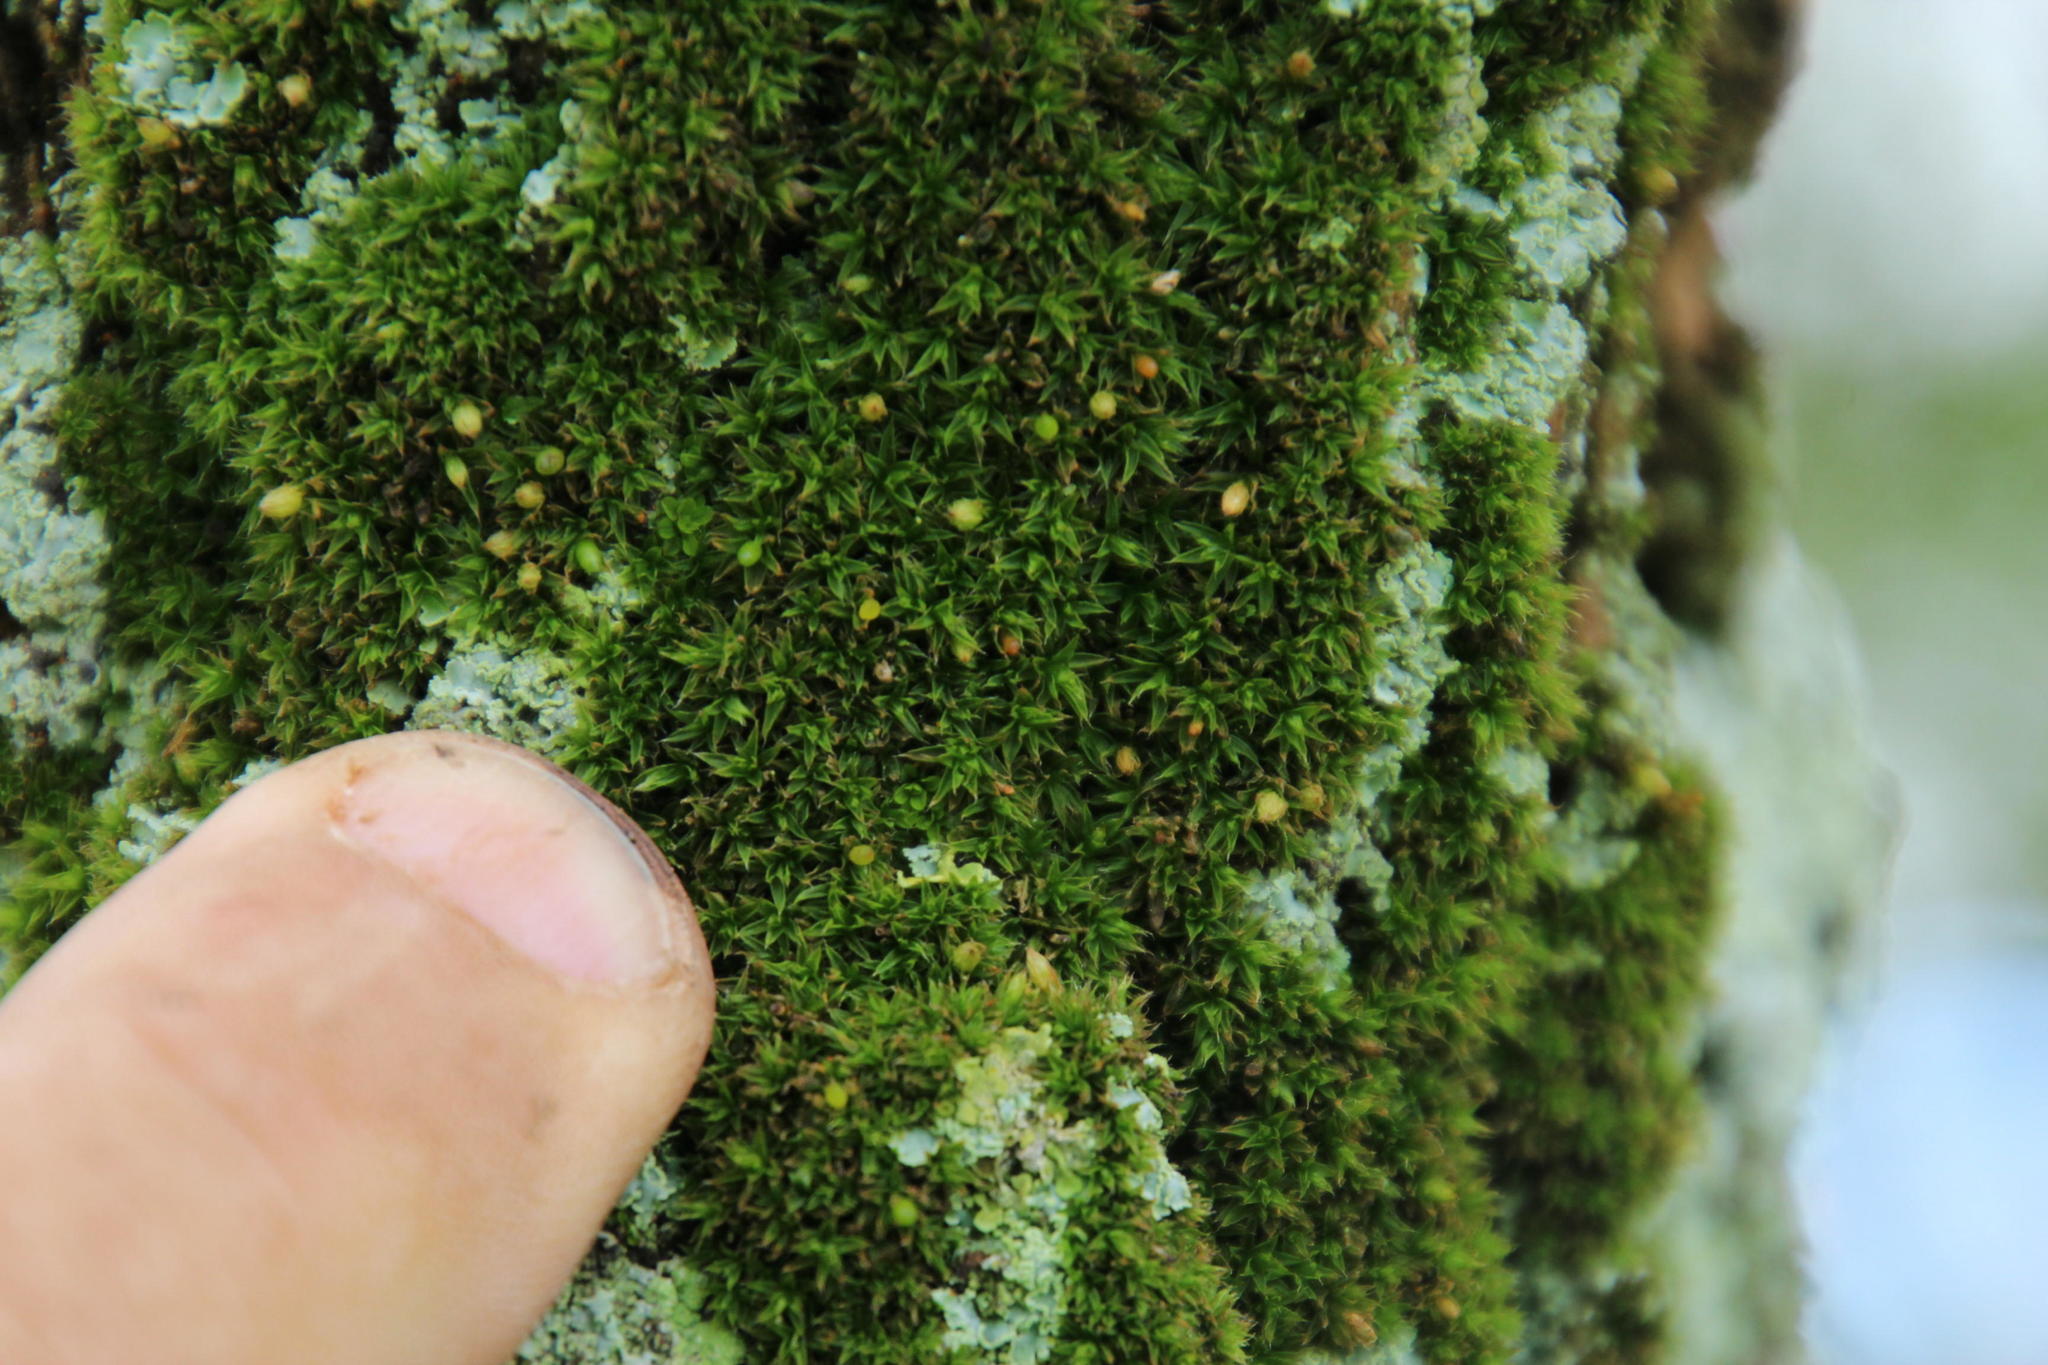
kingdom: Plantae
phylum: Bryophyta
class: Bryopsida
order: Orthotrichales
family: Orthotrichaceae
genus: Orthotrichum
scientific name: Orthotrichum diaphanum
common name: White-tipped bristle-moss
